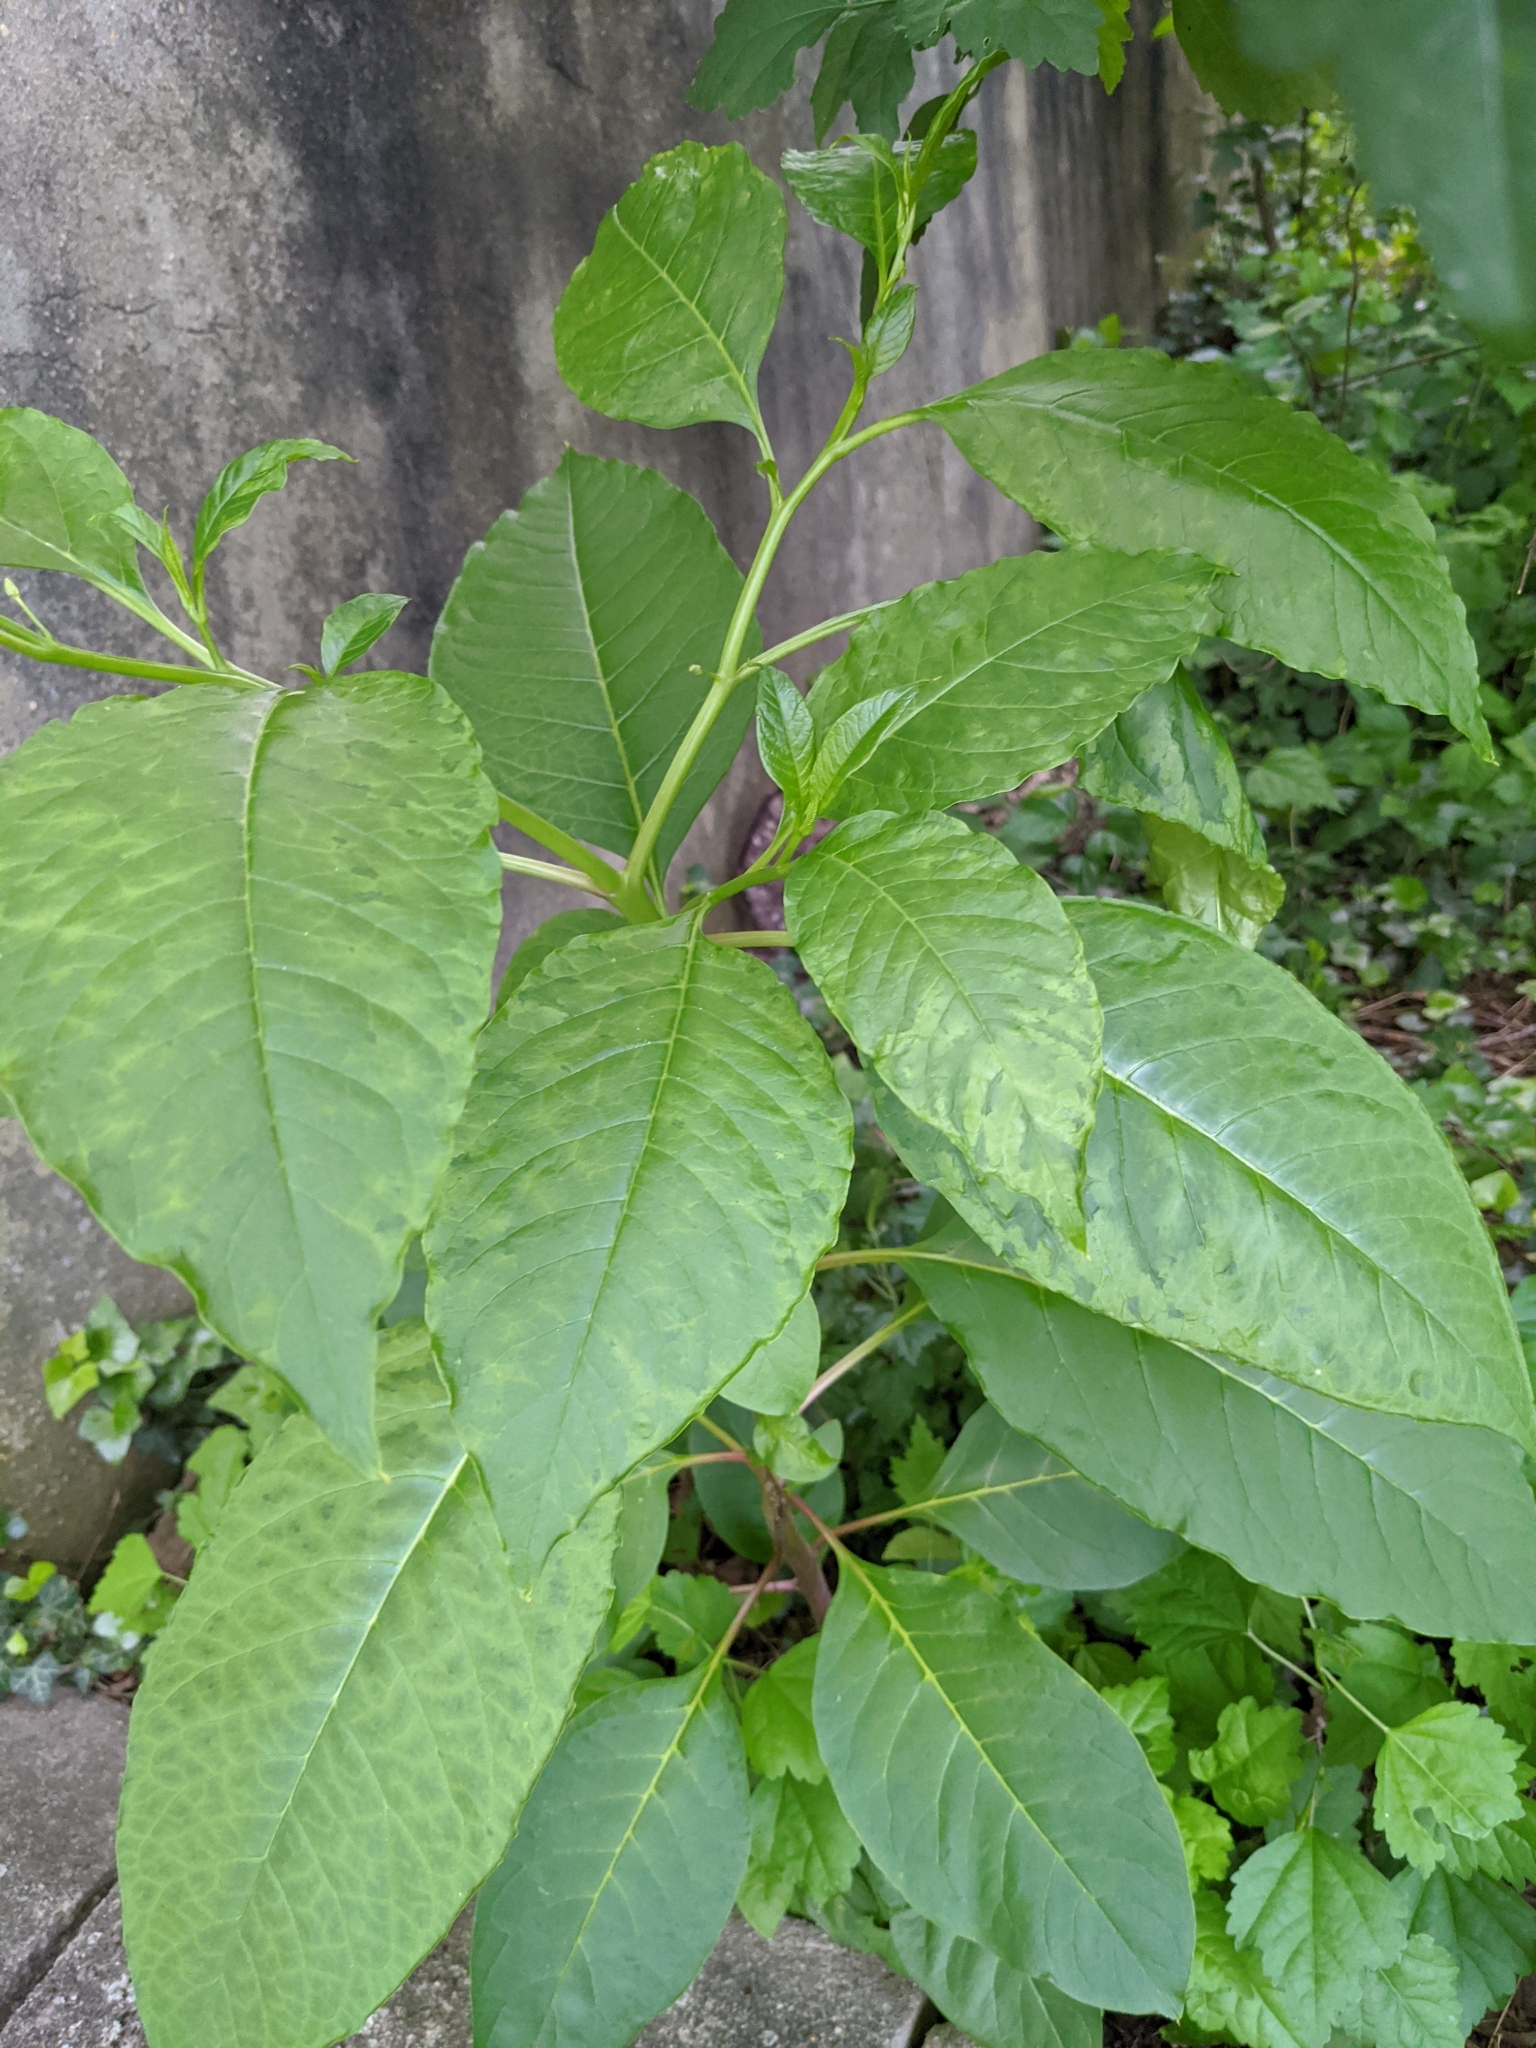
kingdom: Plantae
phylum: Tracheophyta
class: Magnoliopsida
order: Caryophyllales
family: Phytolaccaceae
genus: Phytolacca
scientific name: Phytolacca americana
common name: American pokeweed
